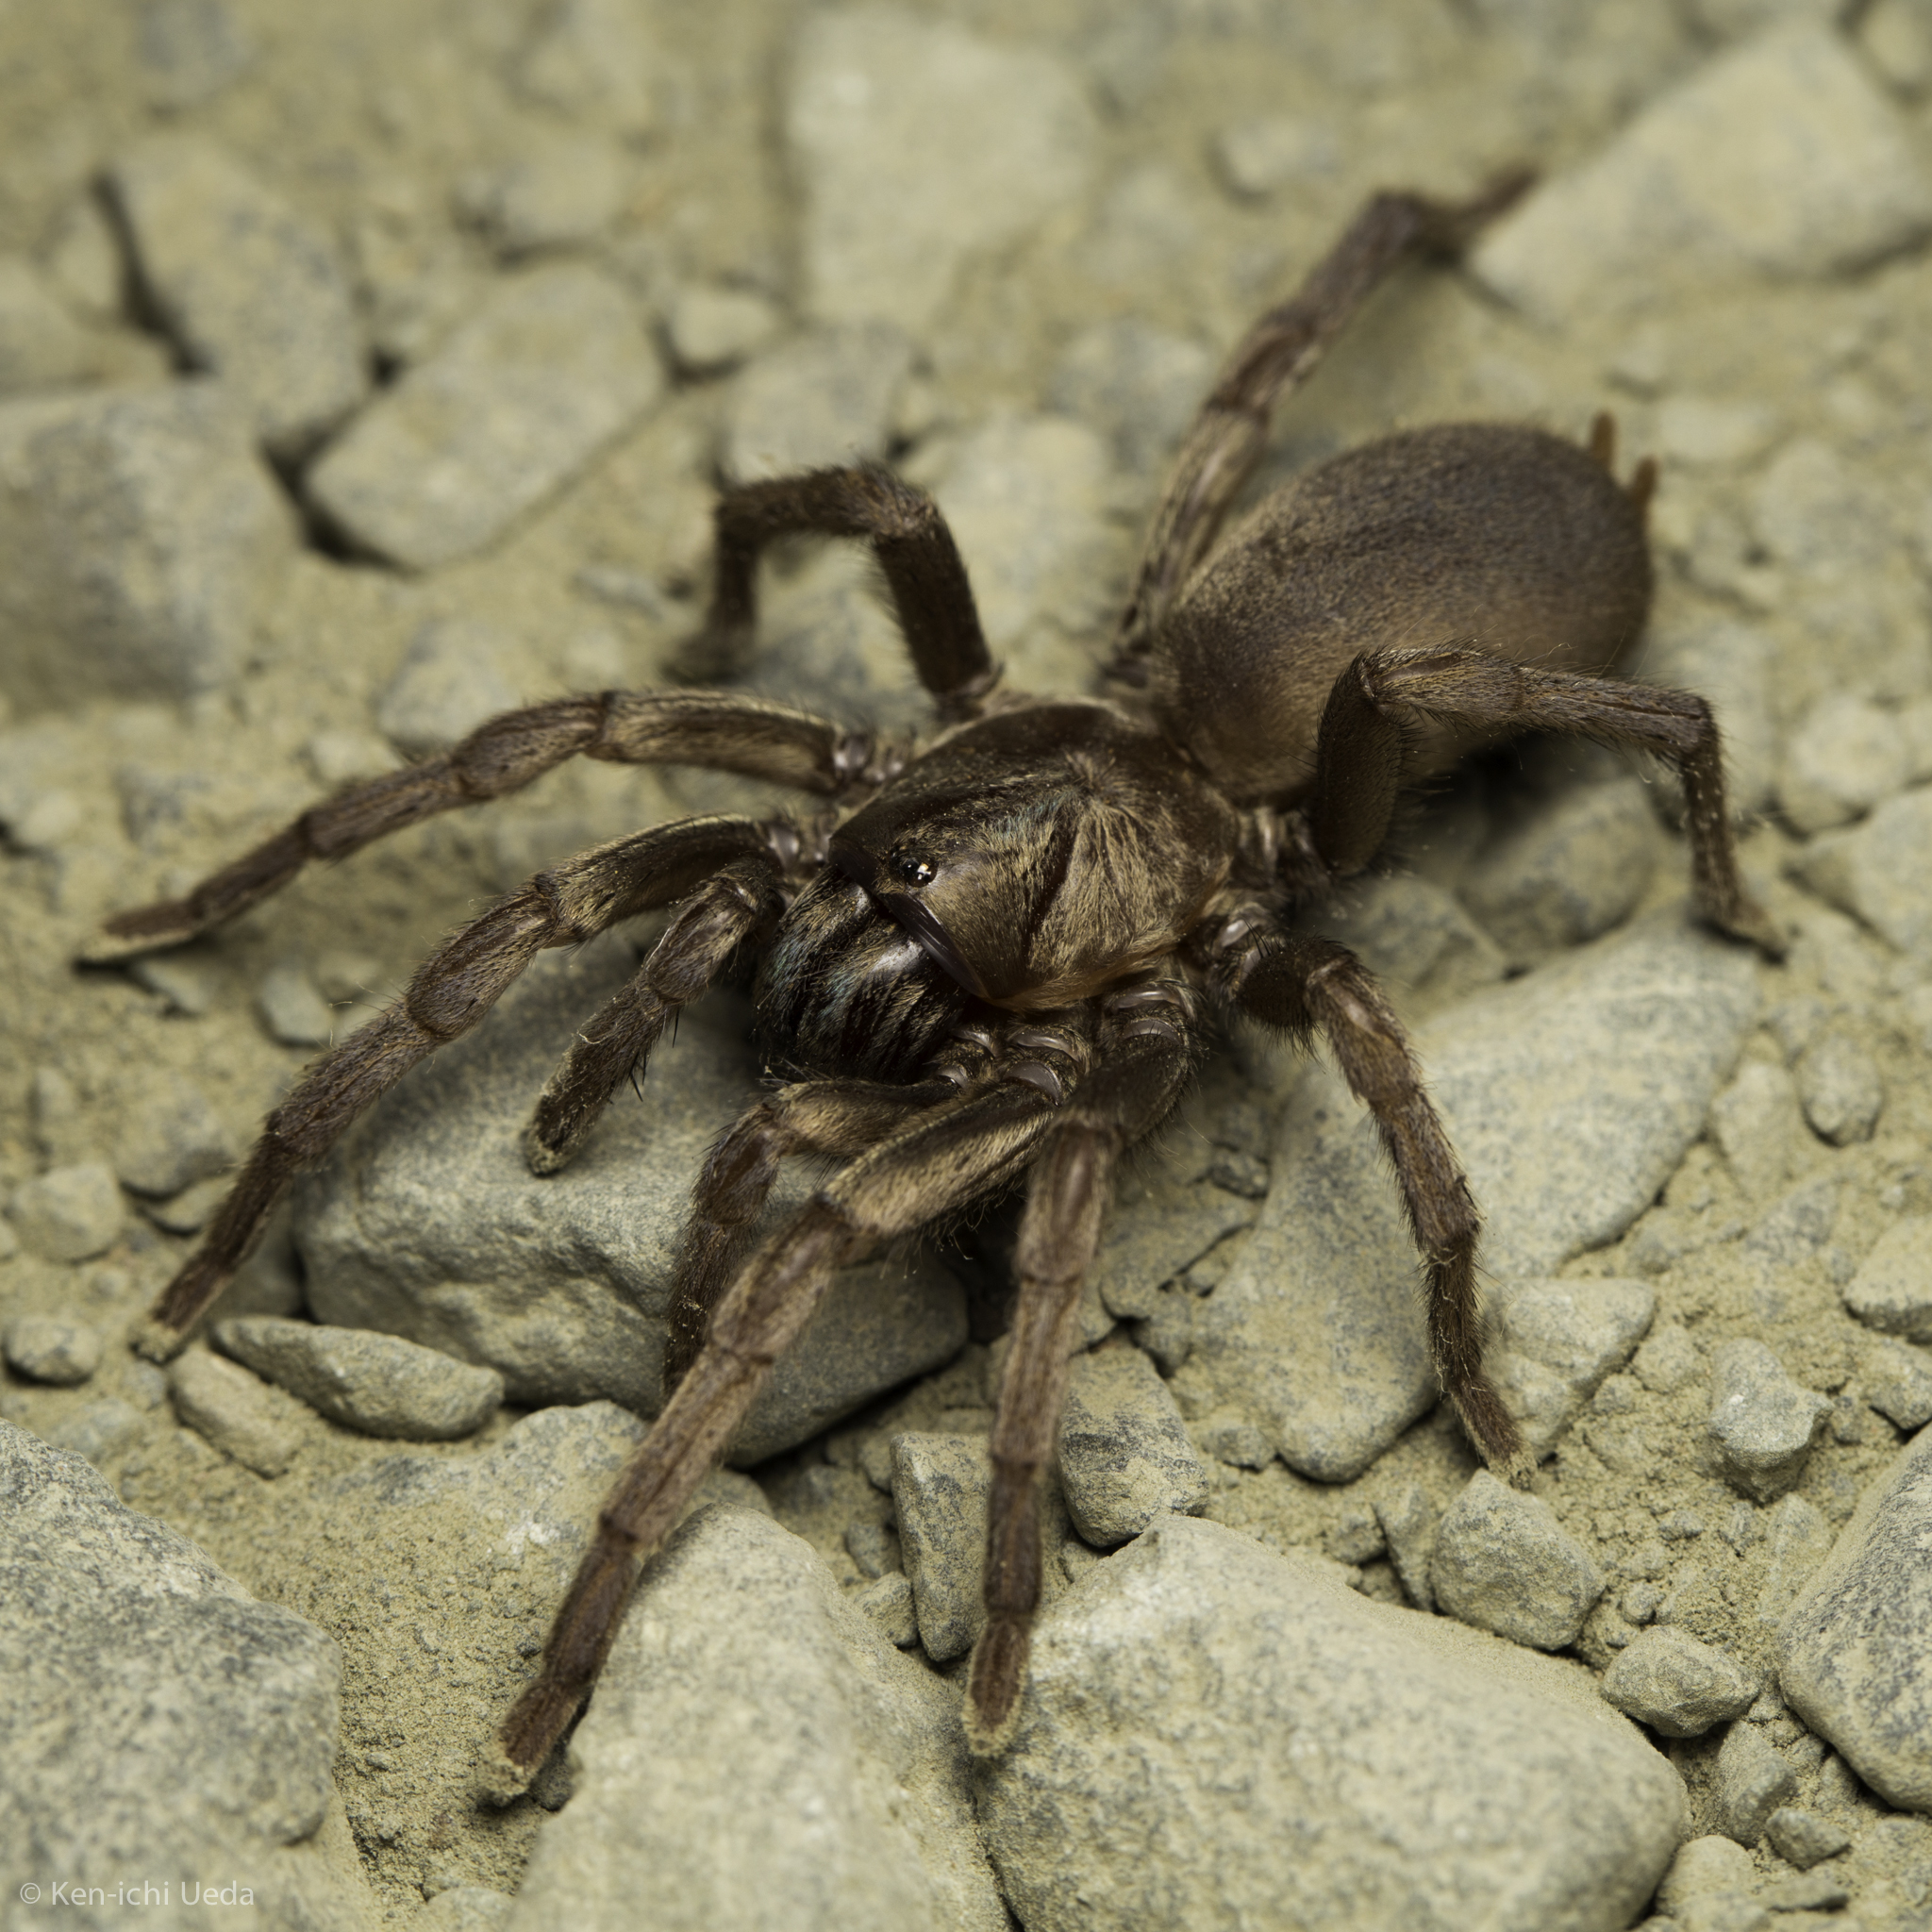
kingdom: Animalia
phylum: Arthropoda
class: Arachnida
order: Araneae
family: Nemesiidae
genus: Calisoga
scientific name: Calisoga longitarsis
